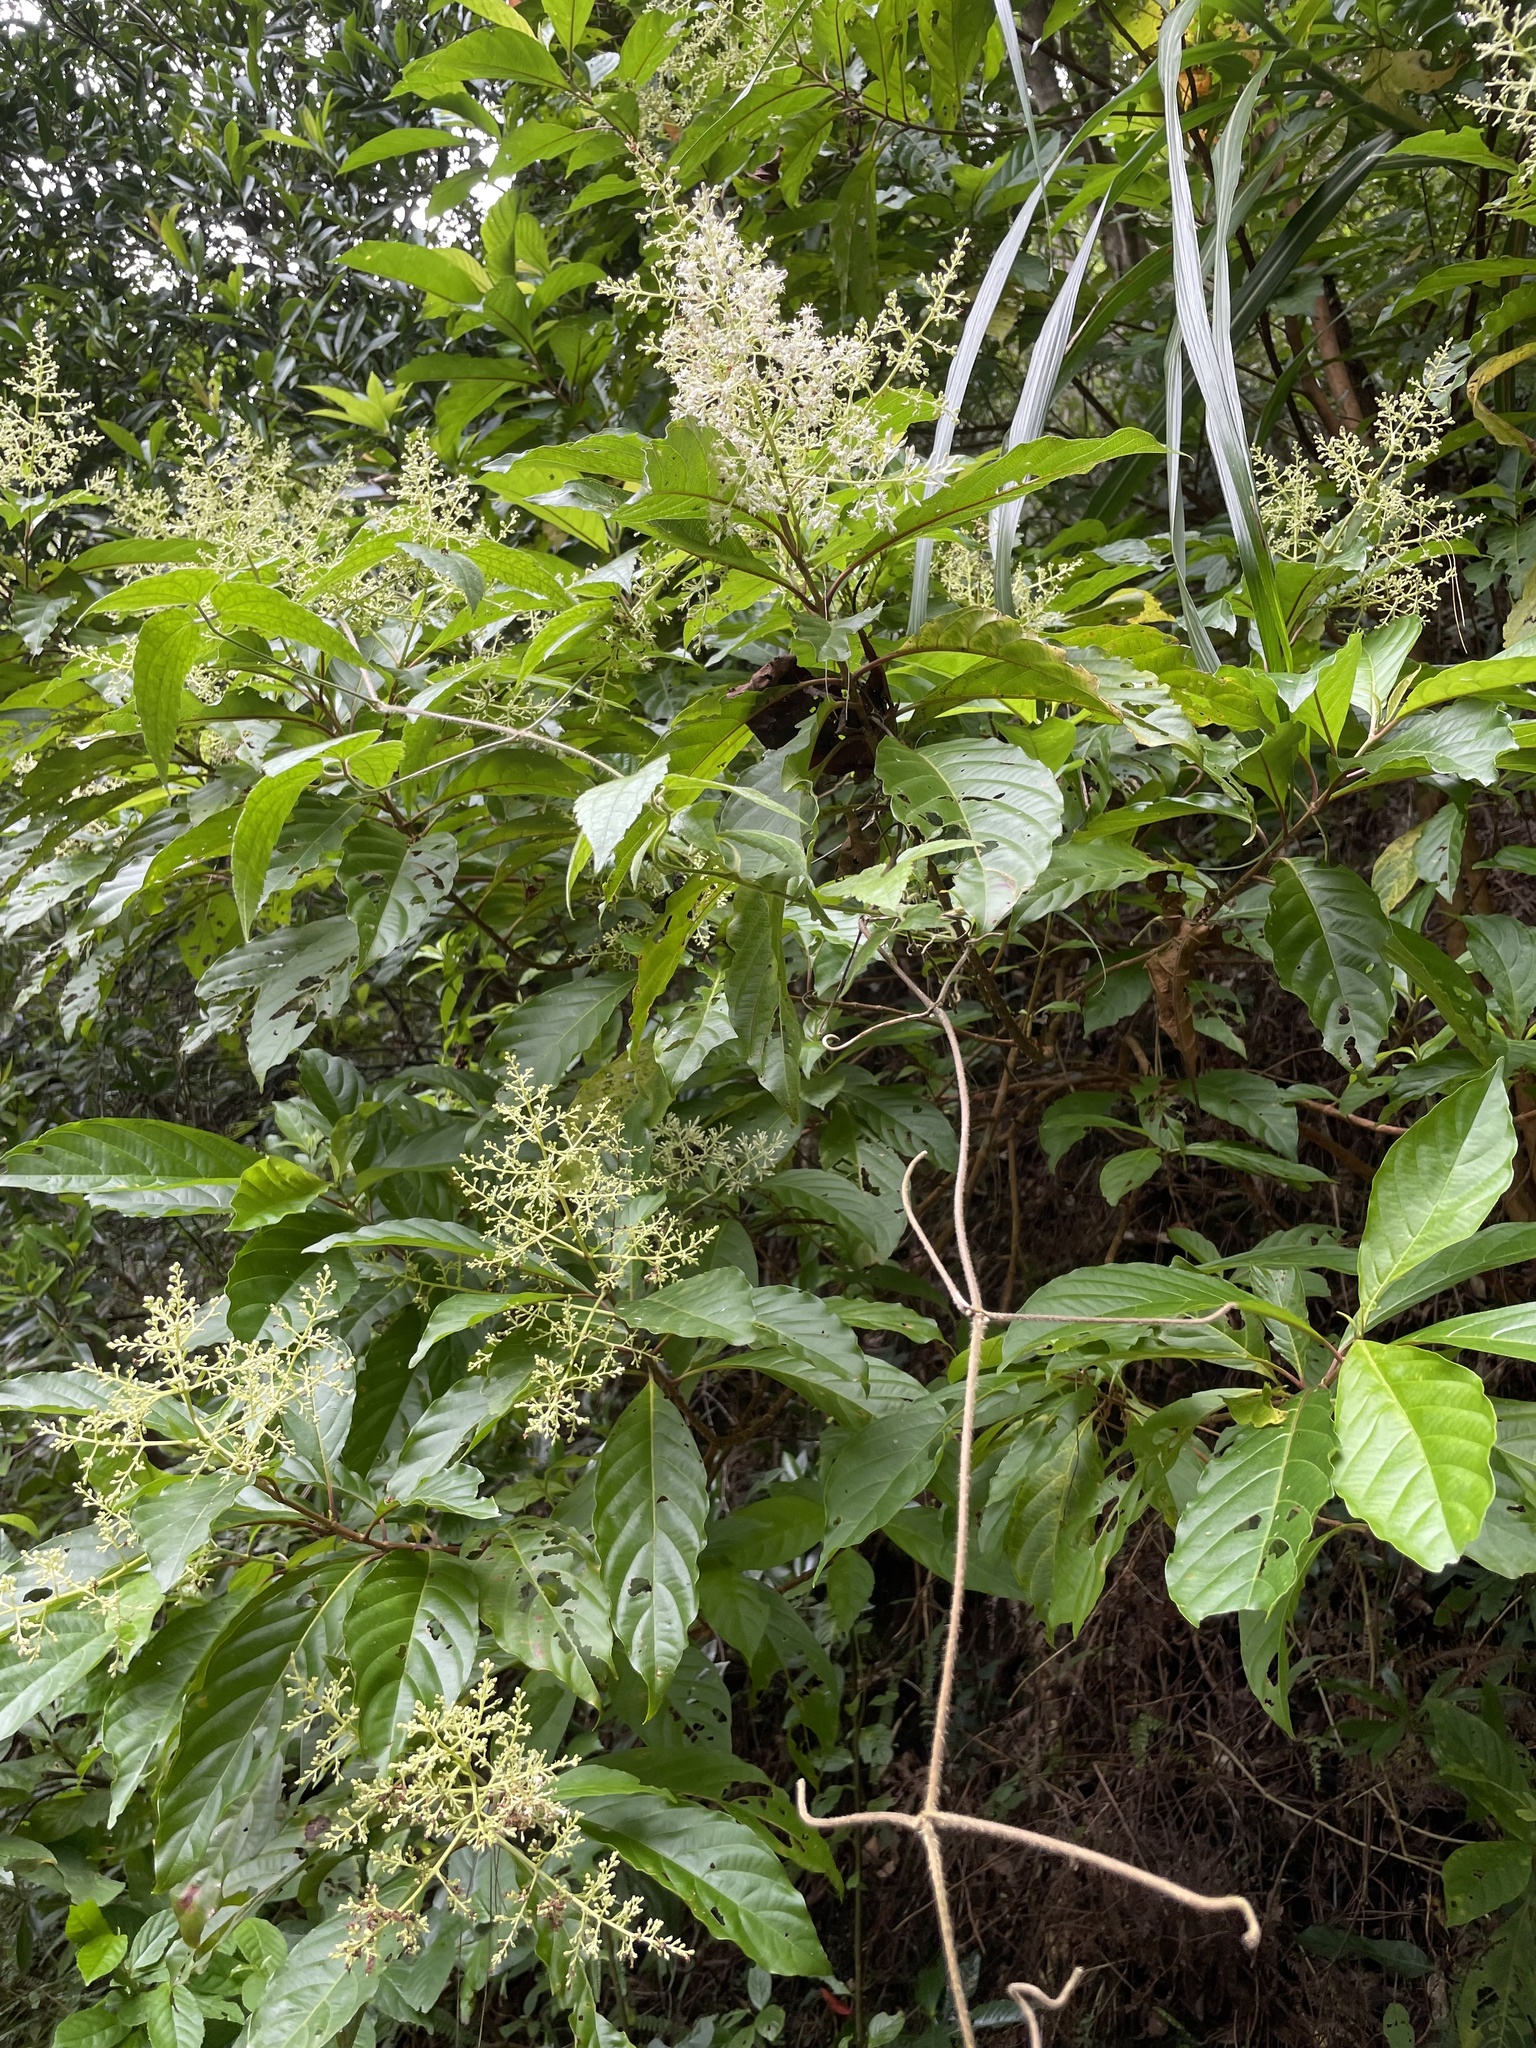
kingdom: Plantae
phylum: Tracheophyta
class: Magnoliopsida
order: Gentianales
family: Rubiaceae
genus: Wendlandia
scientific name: Wendlandia formosana
